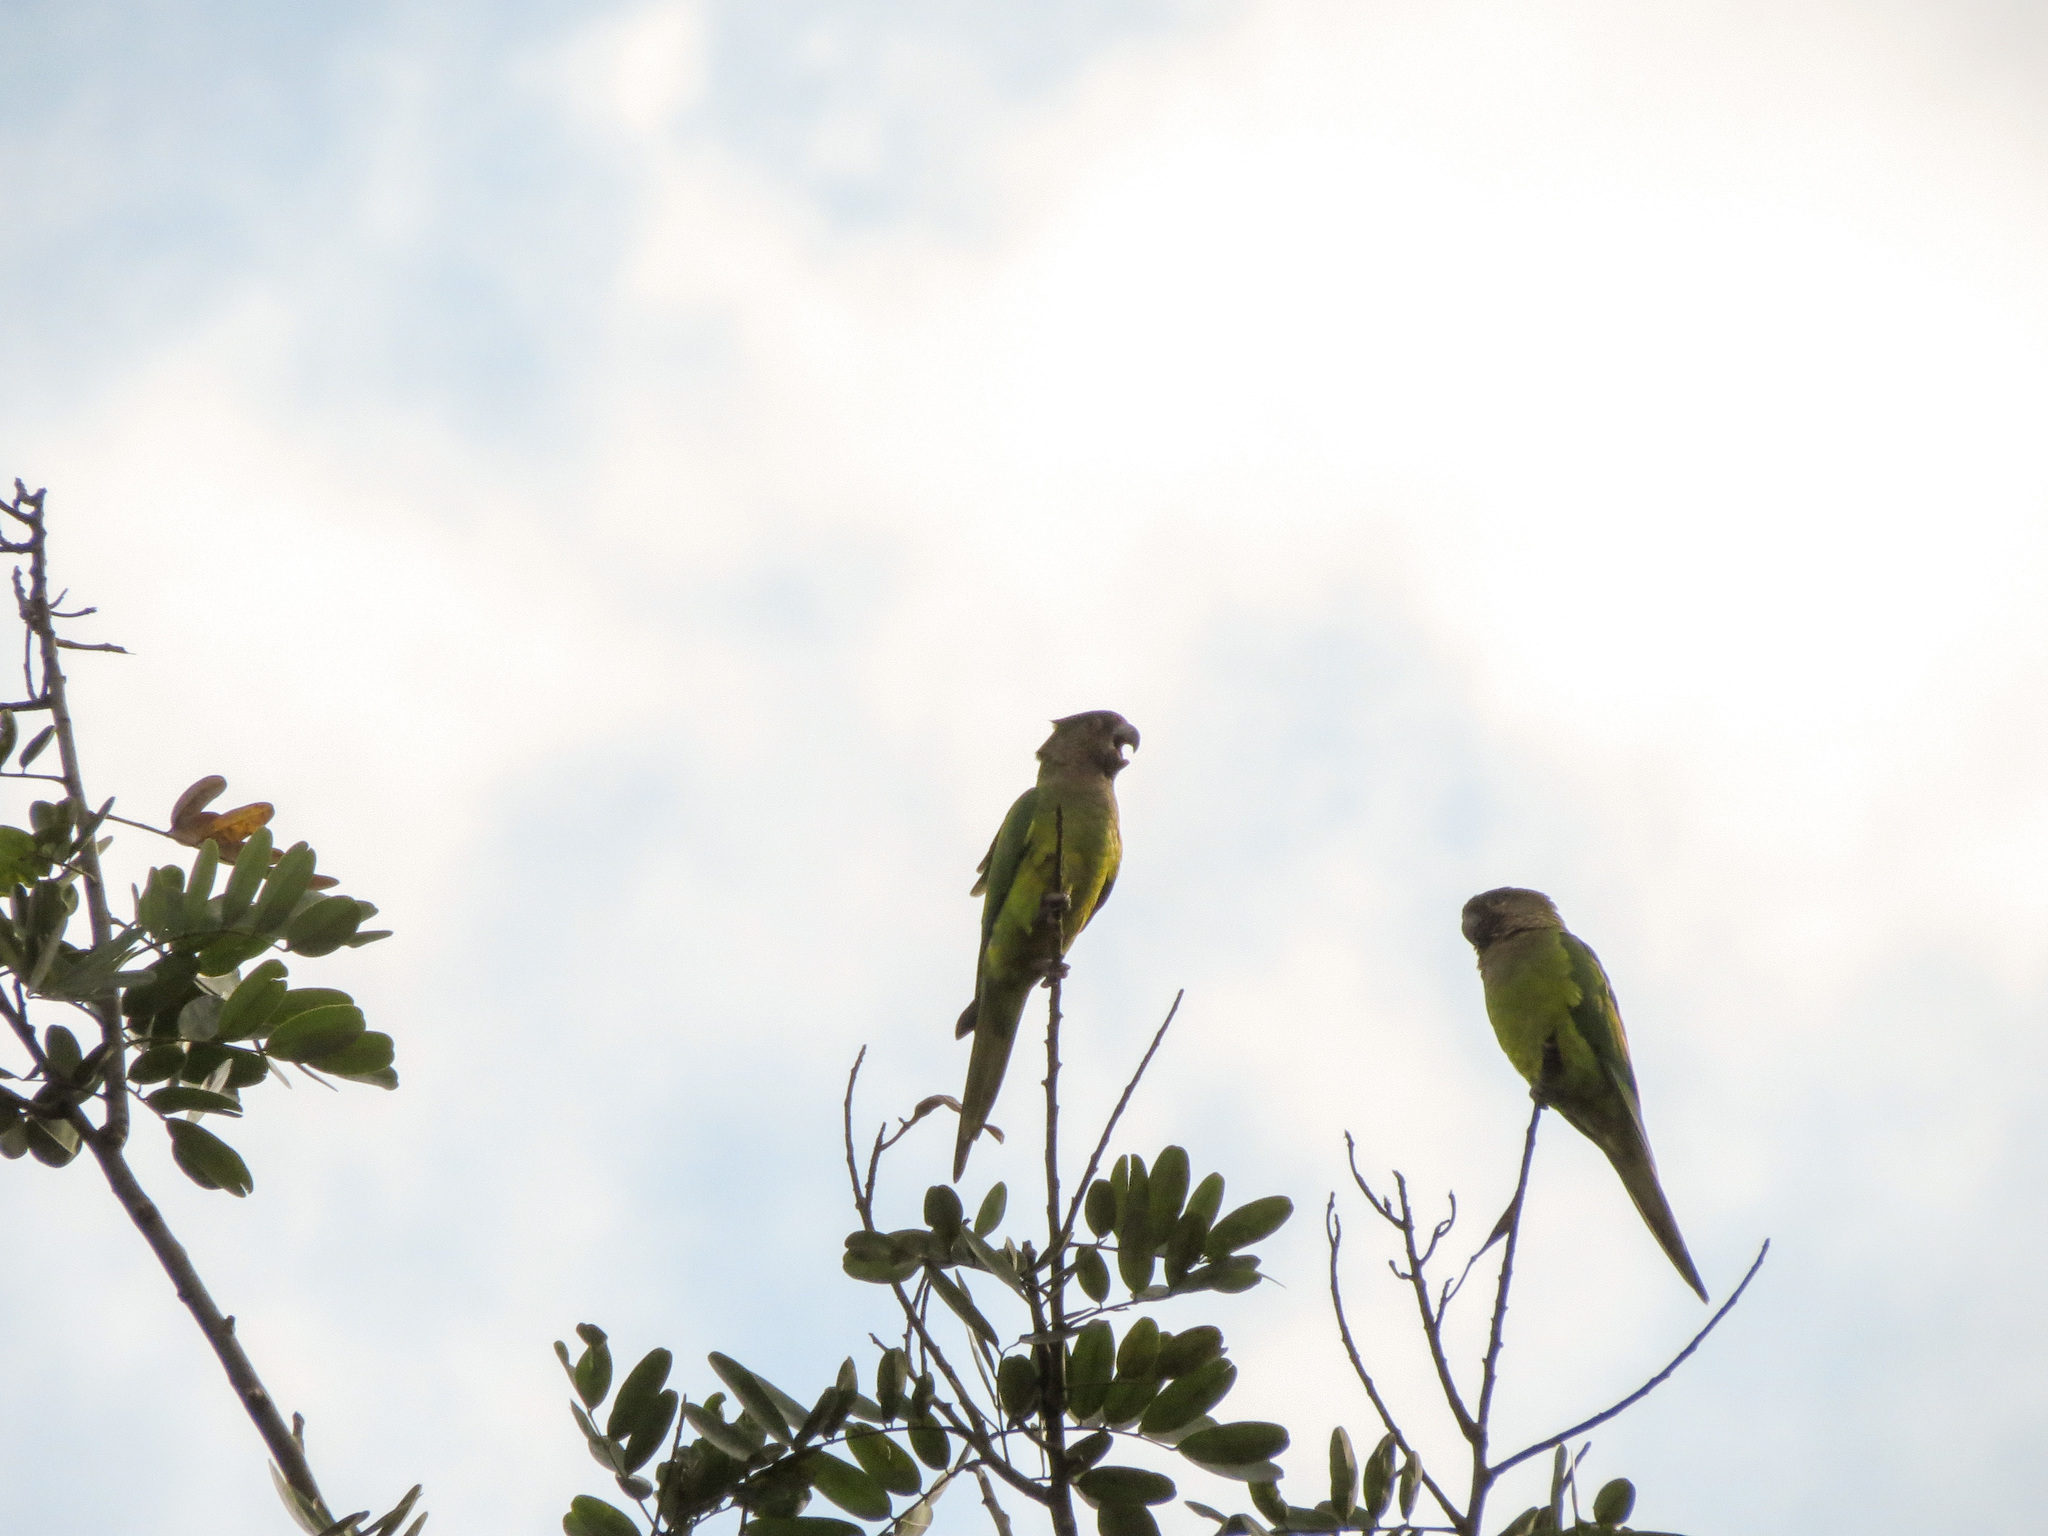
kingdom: Animalia
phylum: Chordata
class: Aves
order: Psittaciformes
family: Psittacidae
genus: Aratinga
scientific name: Aratinga pertinax
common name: Brown-throated parakeet
